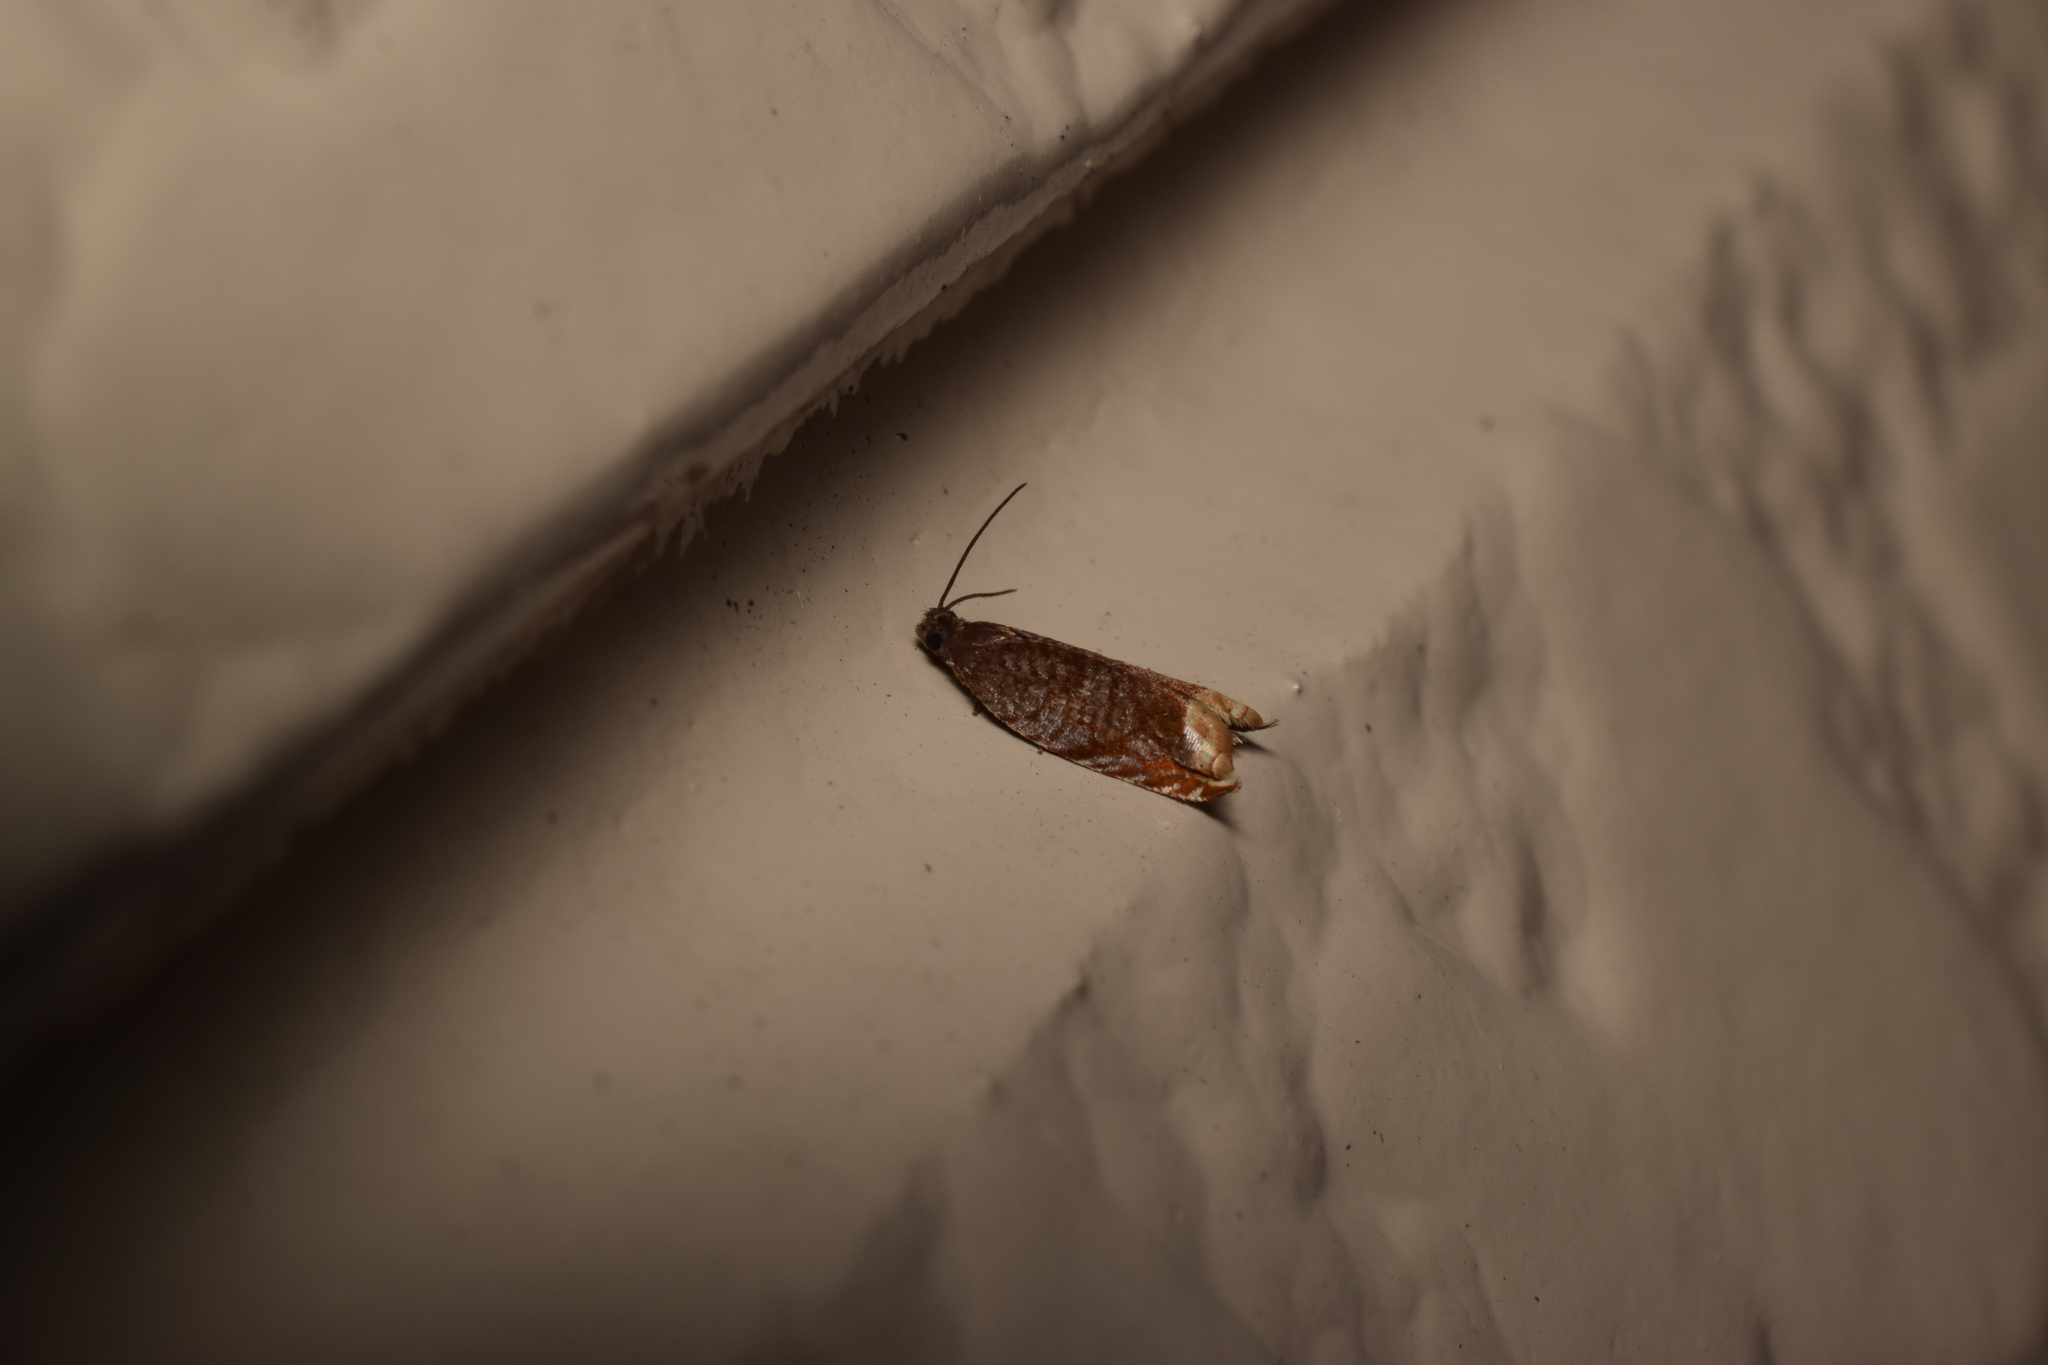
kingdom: Animalia
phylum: Arthropoda
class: Insecta
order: Lepidoptera
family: Tortricidae
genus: Ancylis
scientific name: Ancylis selenana
